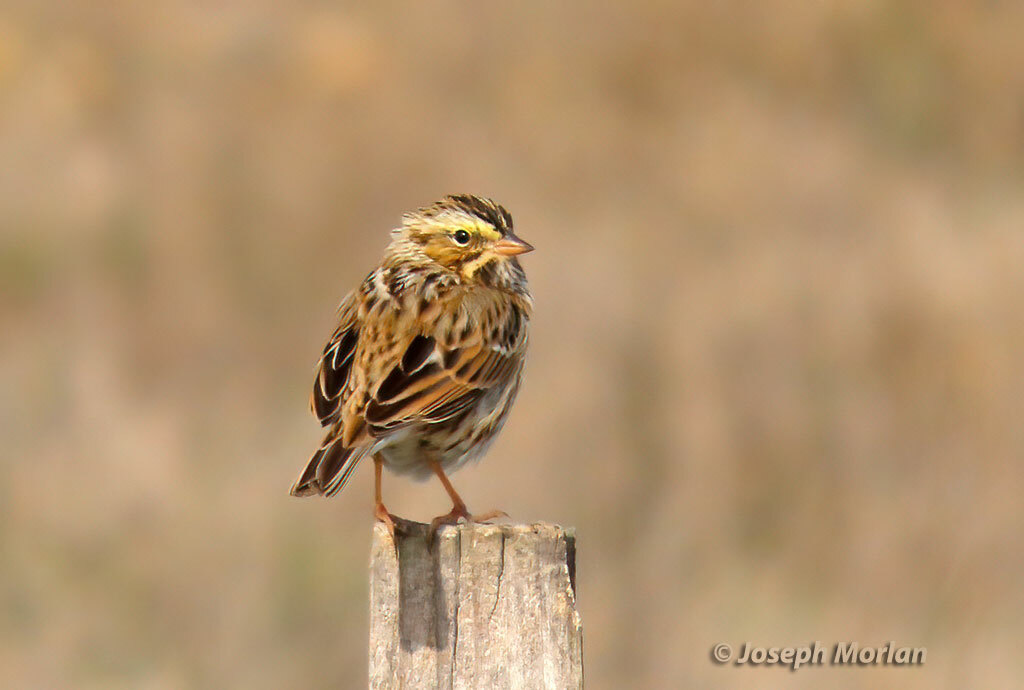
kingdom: Animalia
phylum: Chordata
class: Aves
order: Passeriformes
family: Passerellidae
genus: Passerculus
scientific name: Passerculus sandwichensis
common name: Savannah sparrow
